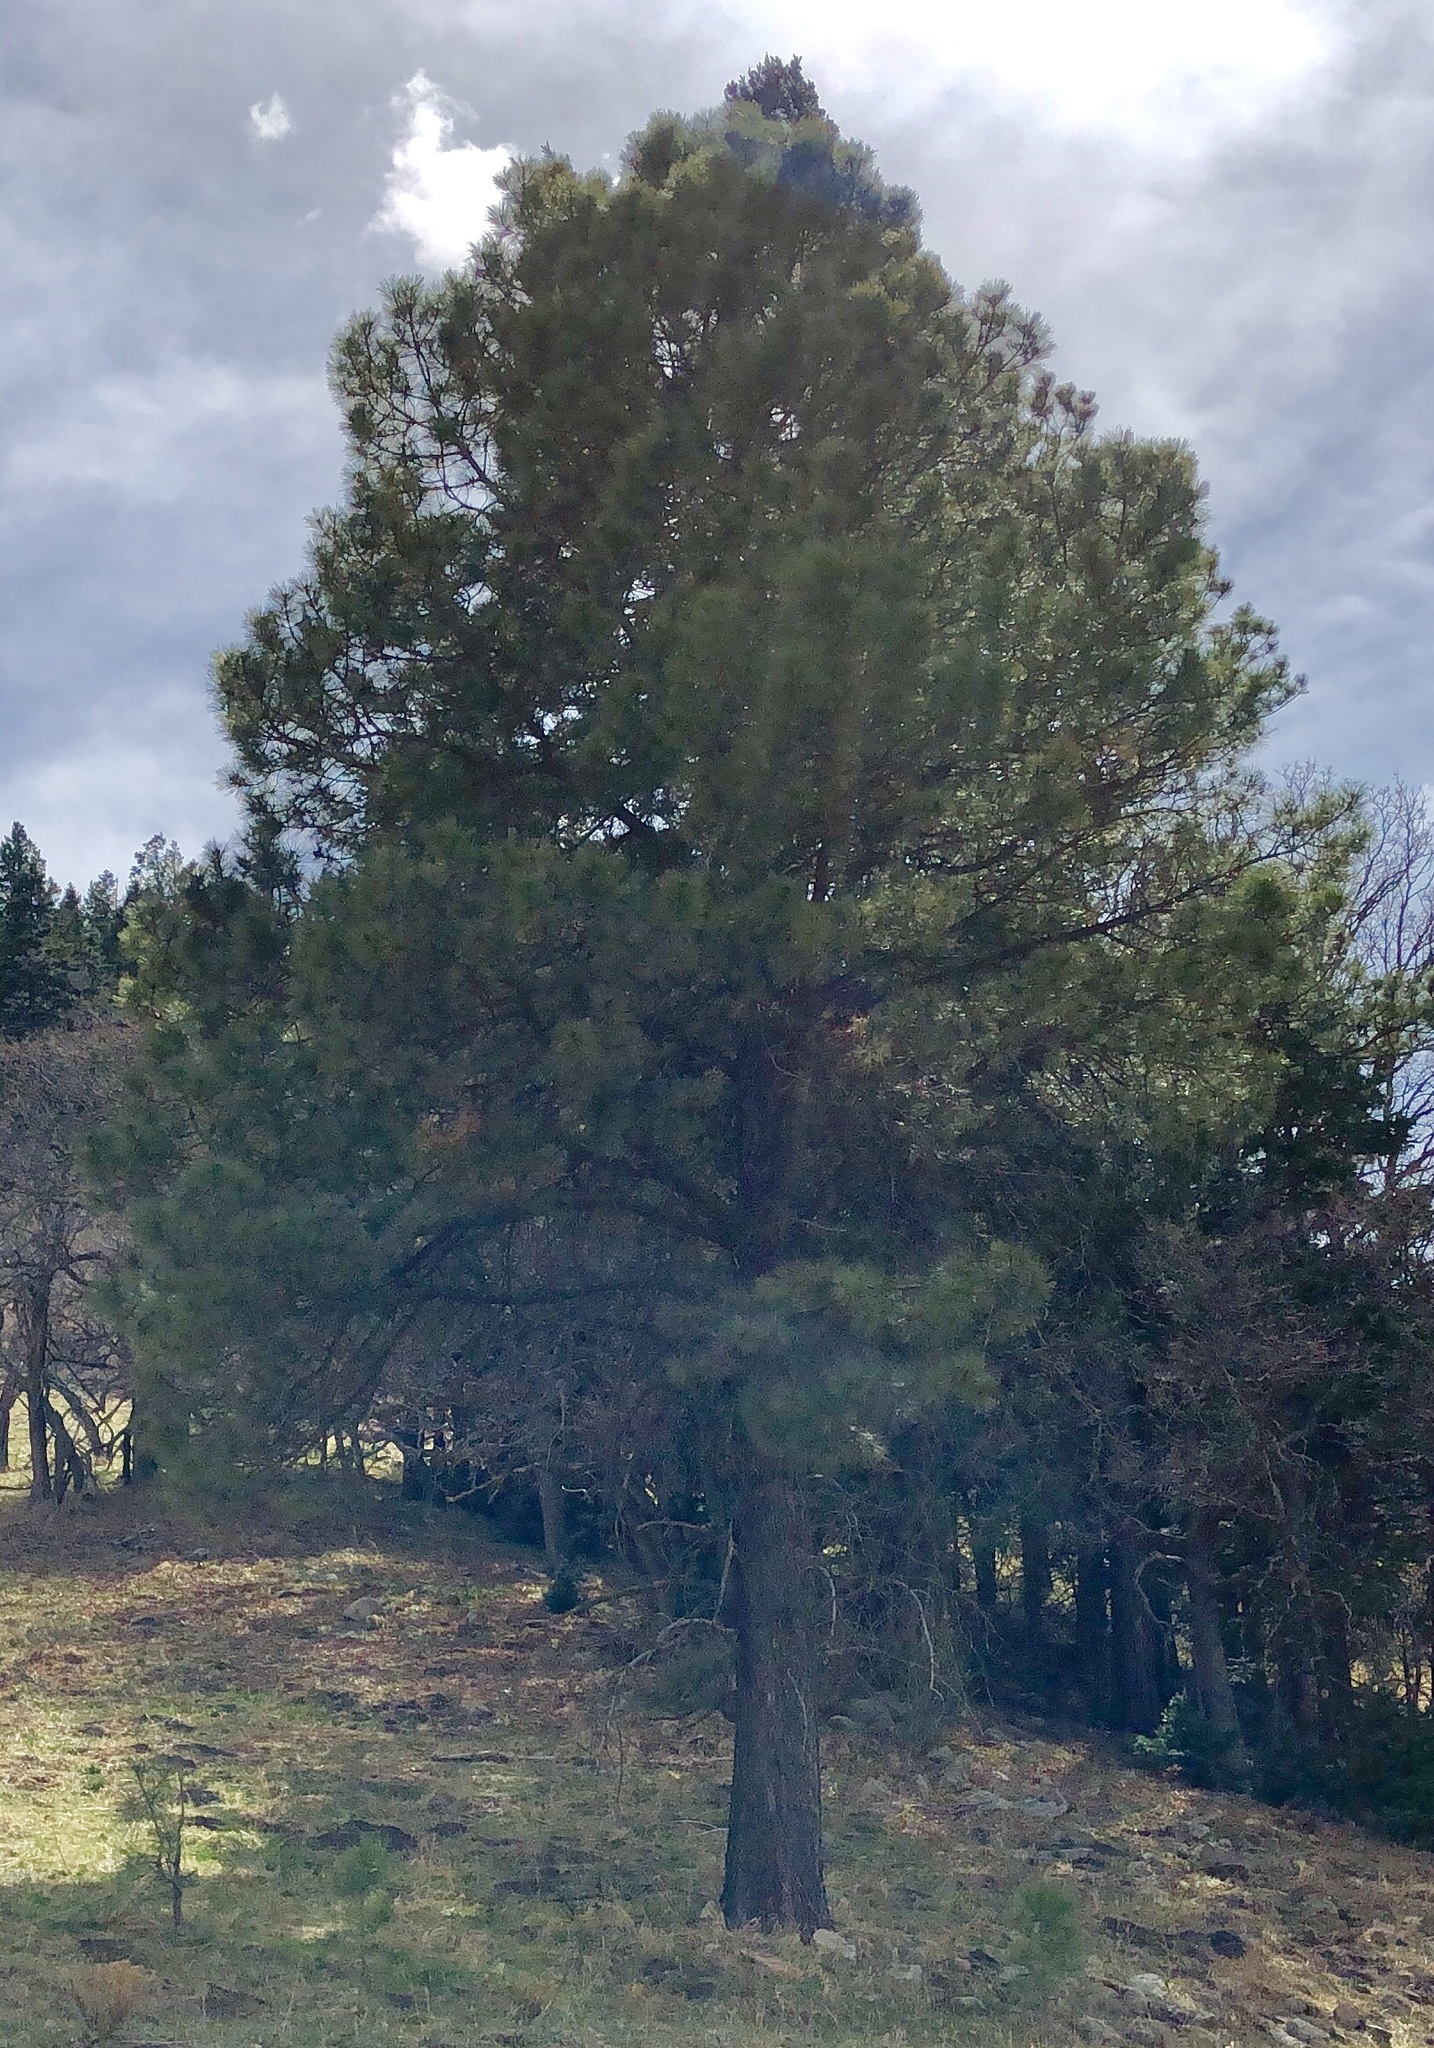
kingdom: Plantae
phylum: Tracheophyta
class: Pinopsida
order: Pinales
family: Pinaceae
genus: Pinus
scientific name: Pinus ponderosa
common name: Western yellow-pine
